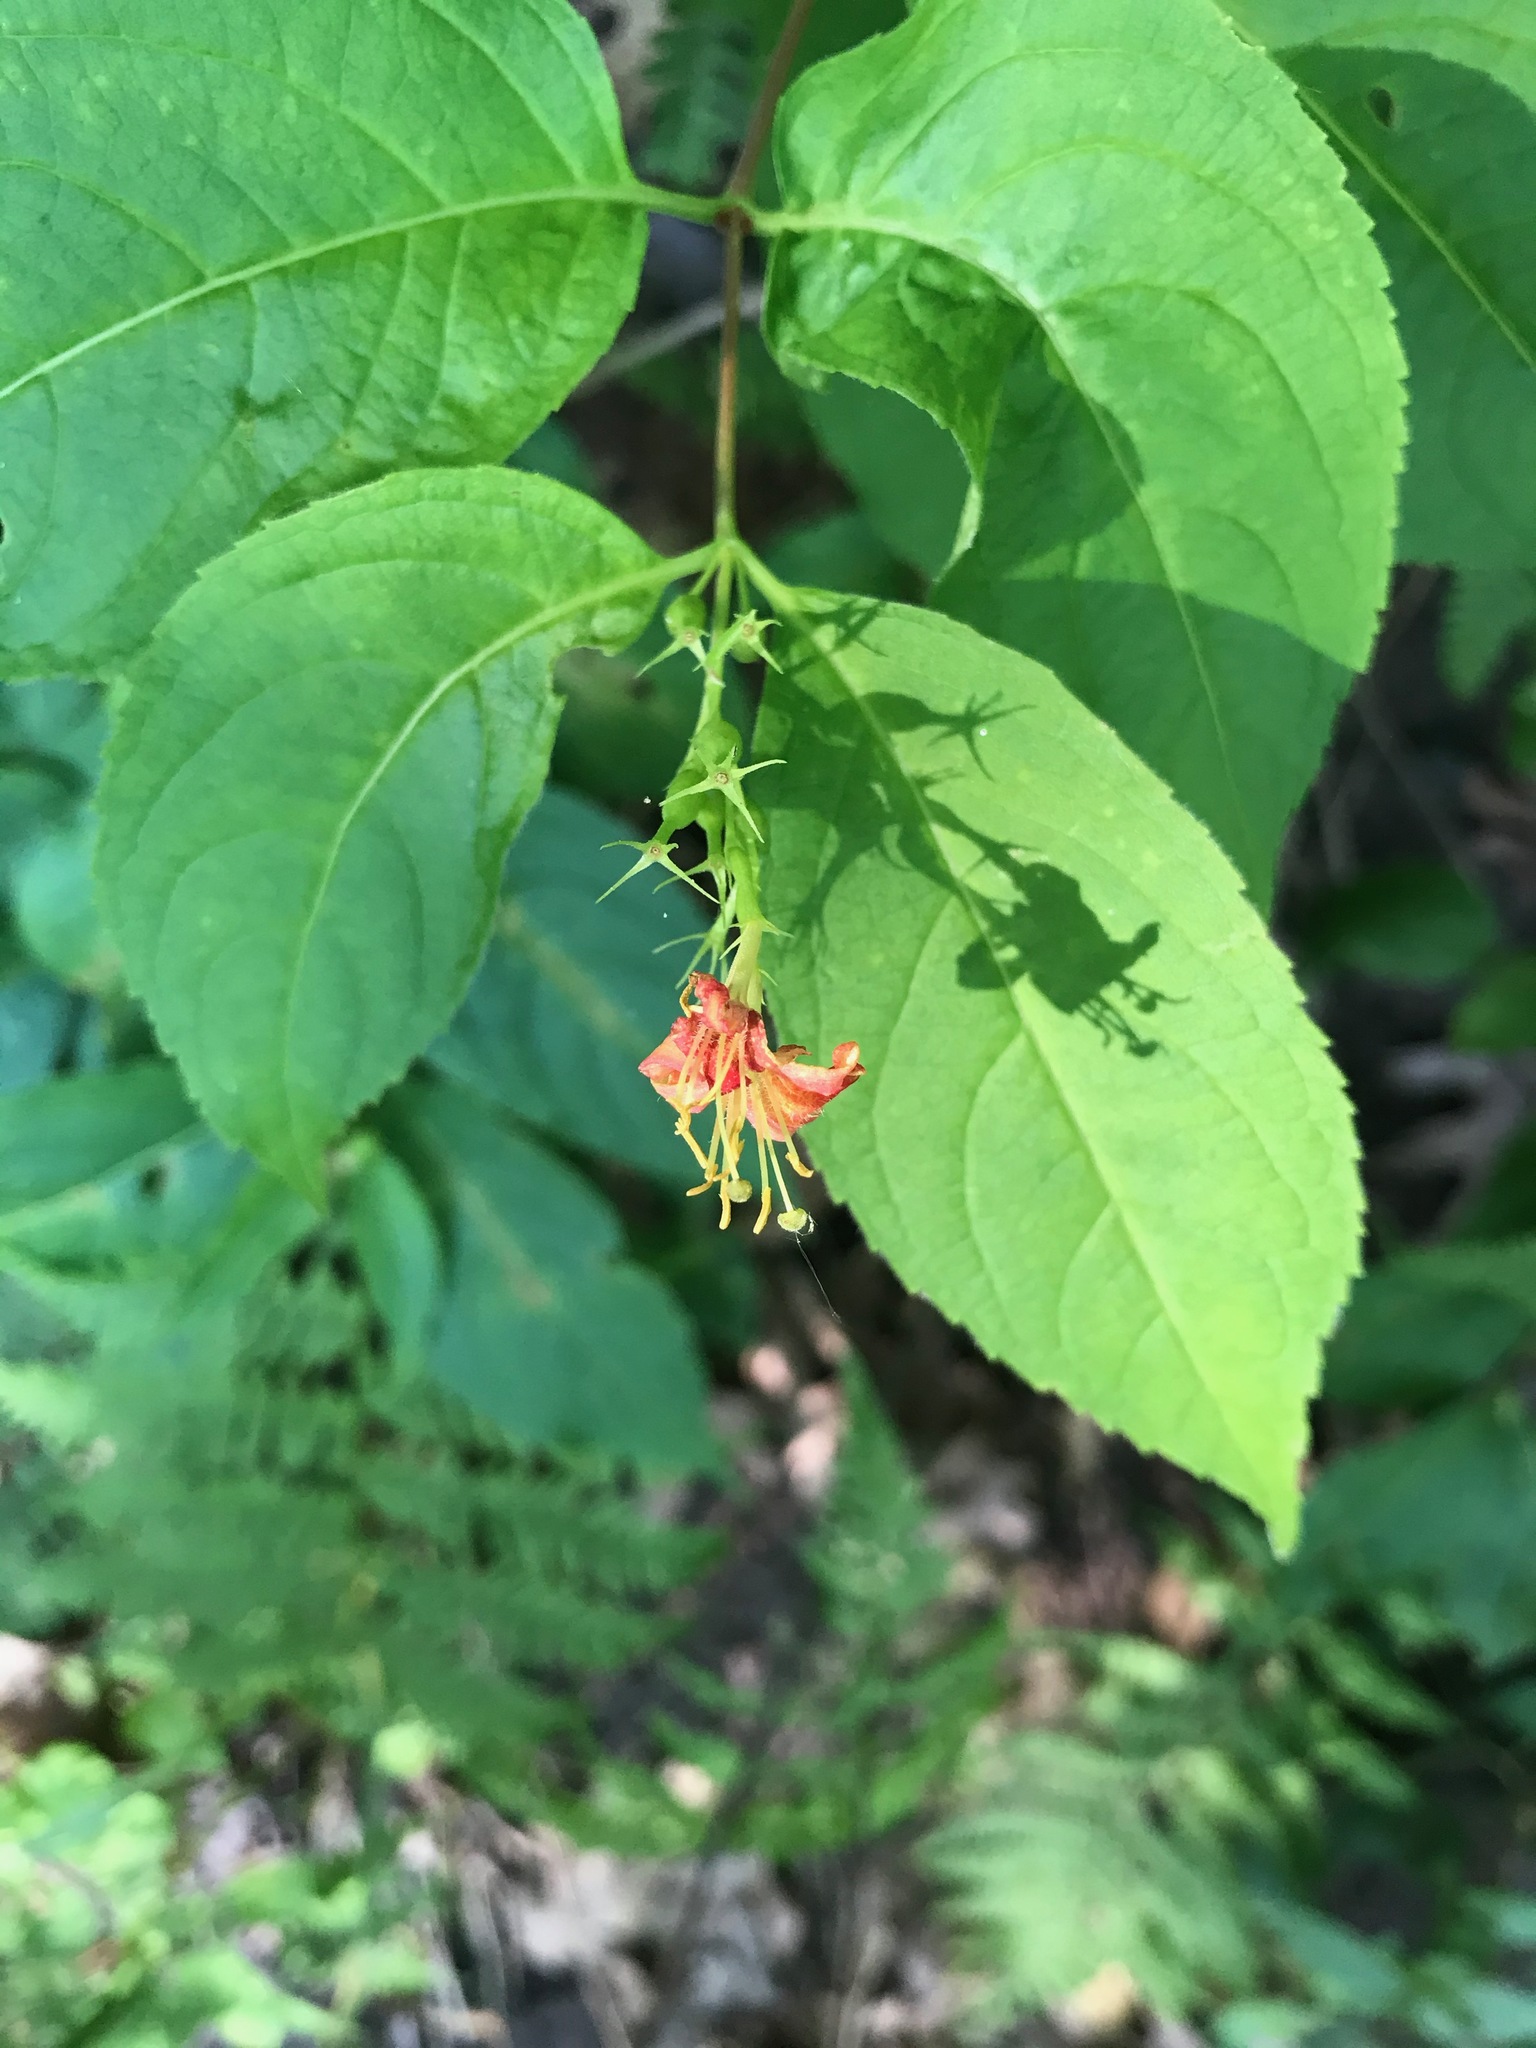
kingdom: Plantae
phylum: Tracheophyta
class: Magnoliopsida
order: Dipsacales
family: Caprifoliaceae
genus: Diervilla
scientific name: Diervilla lonicera
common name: Bush-honeysuckle
